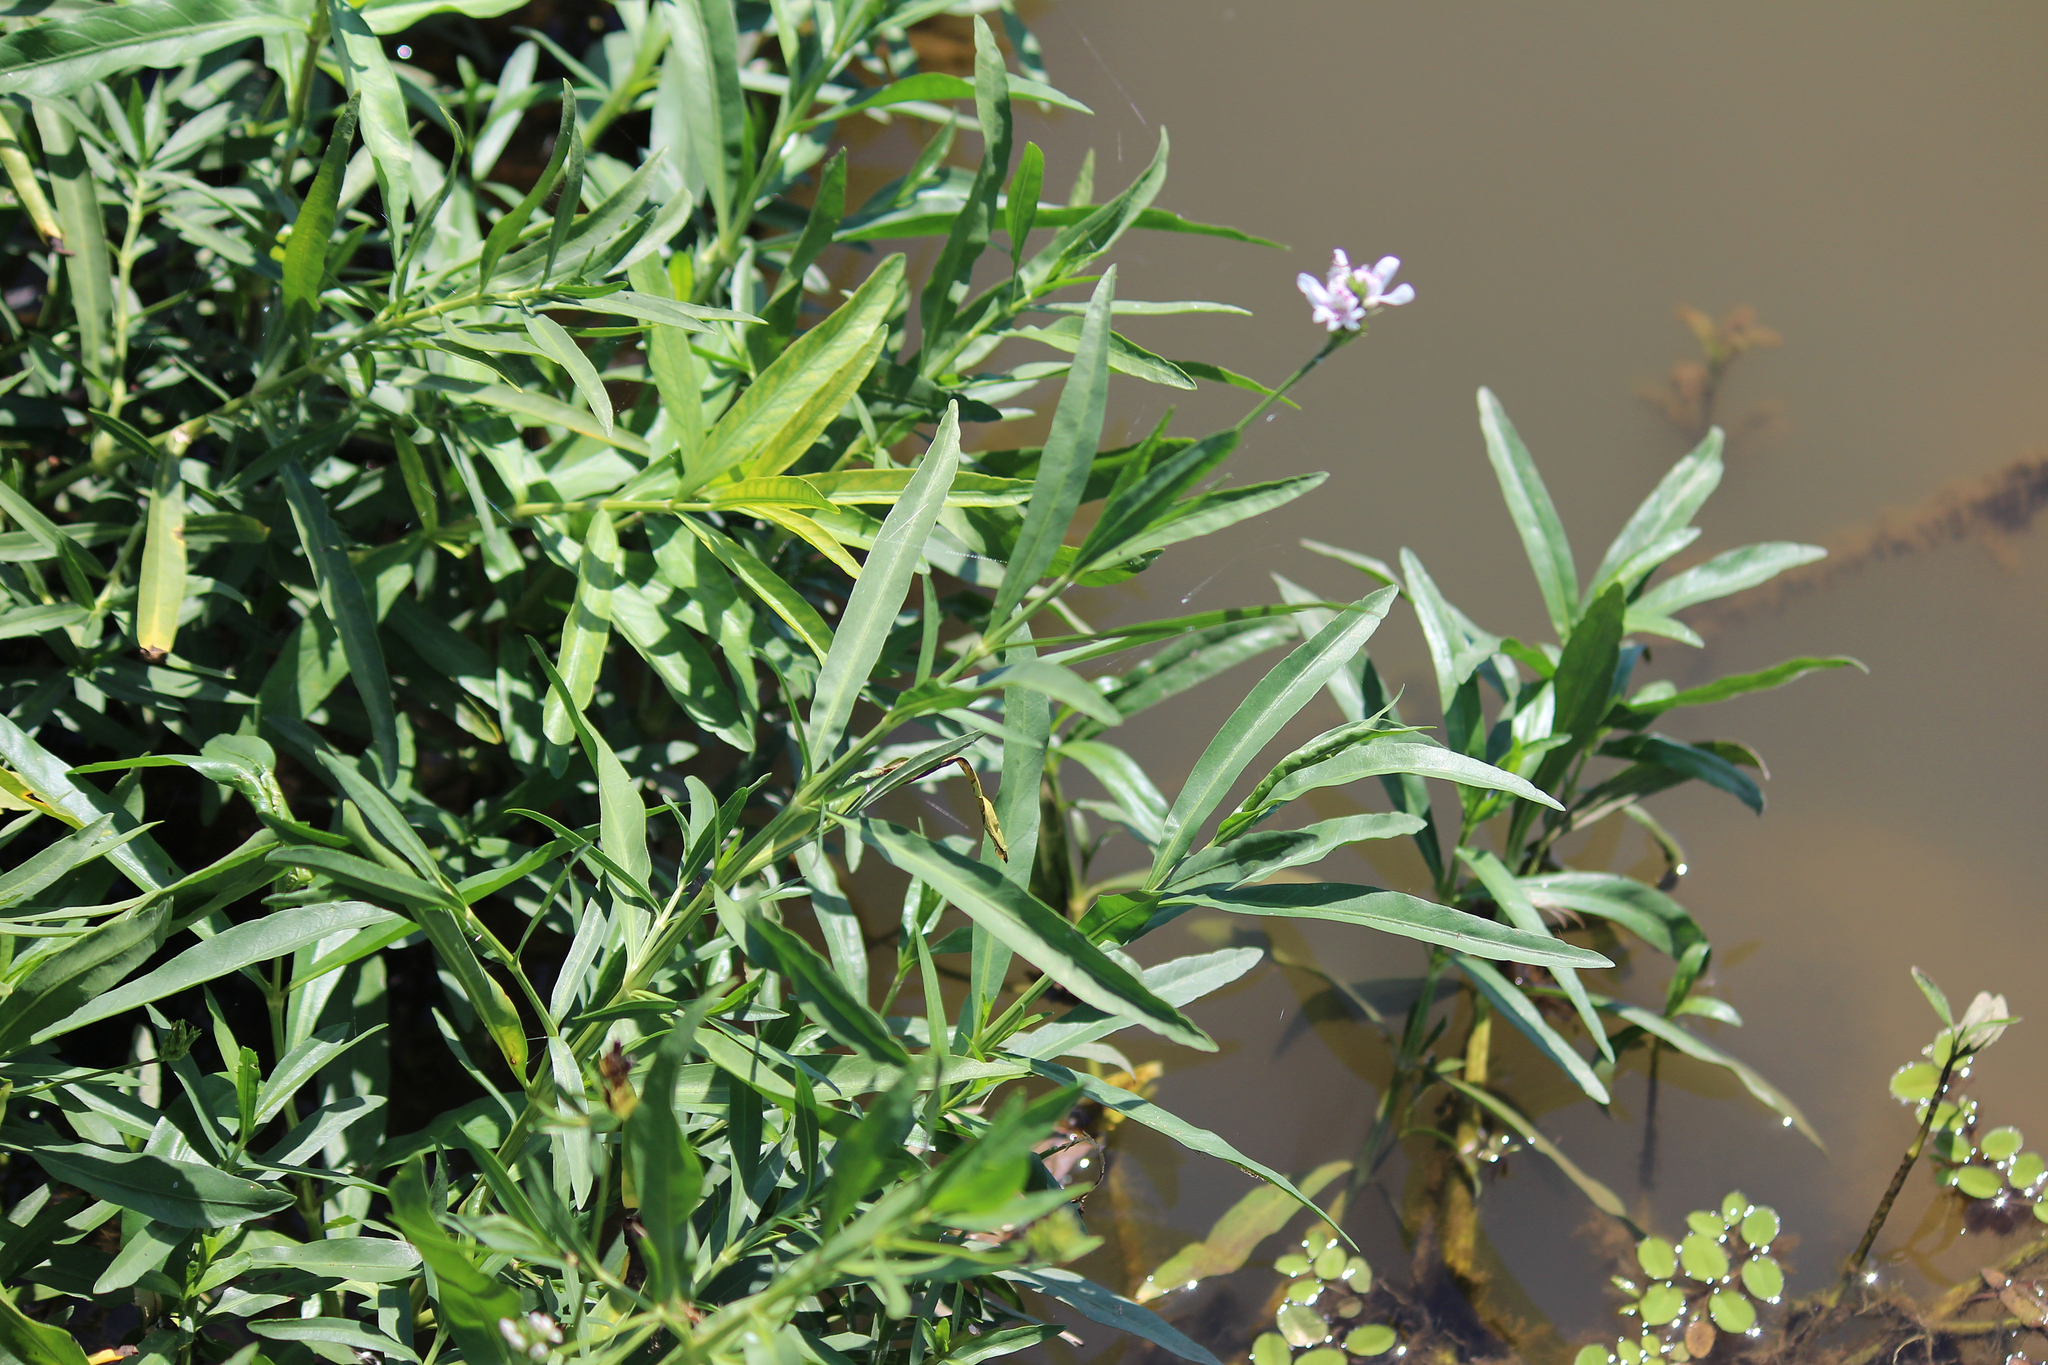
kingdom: Plantae
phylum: Tracheophyta
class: Magnoliopsida
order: Lamiales
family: Acanthaceae
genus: Dianthera
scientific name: Dianthera americana
